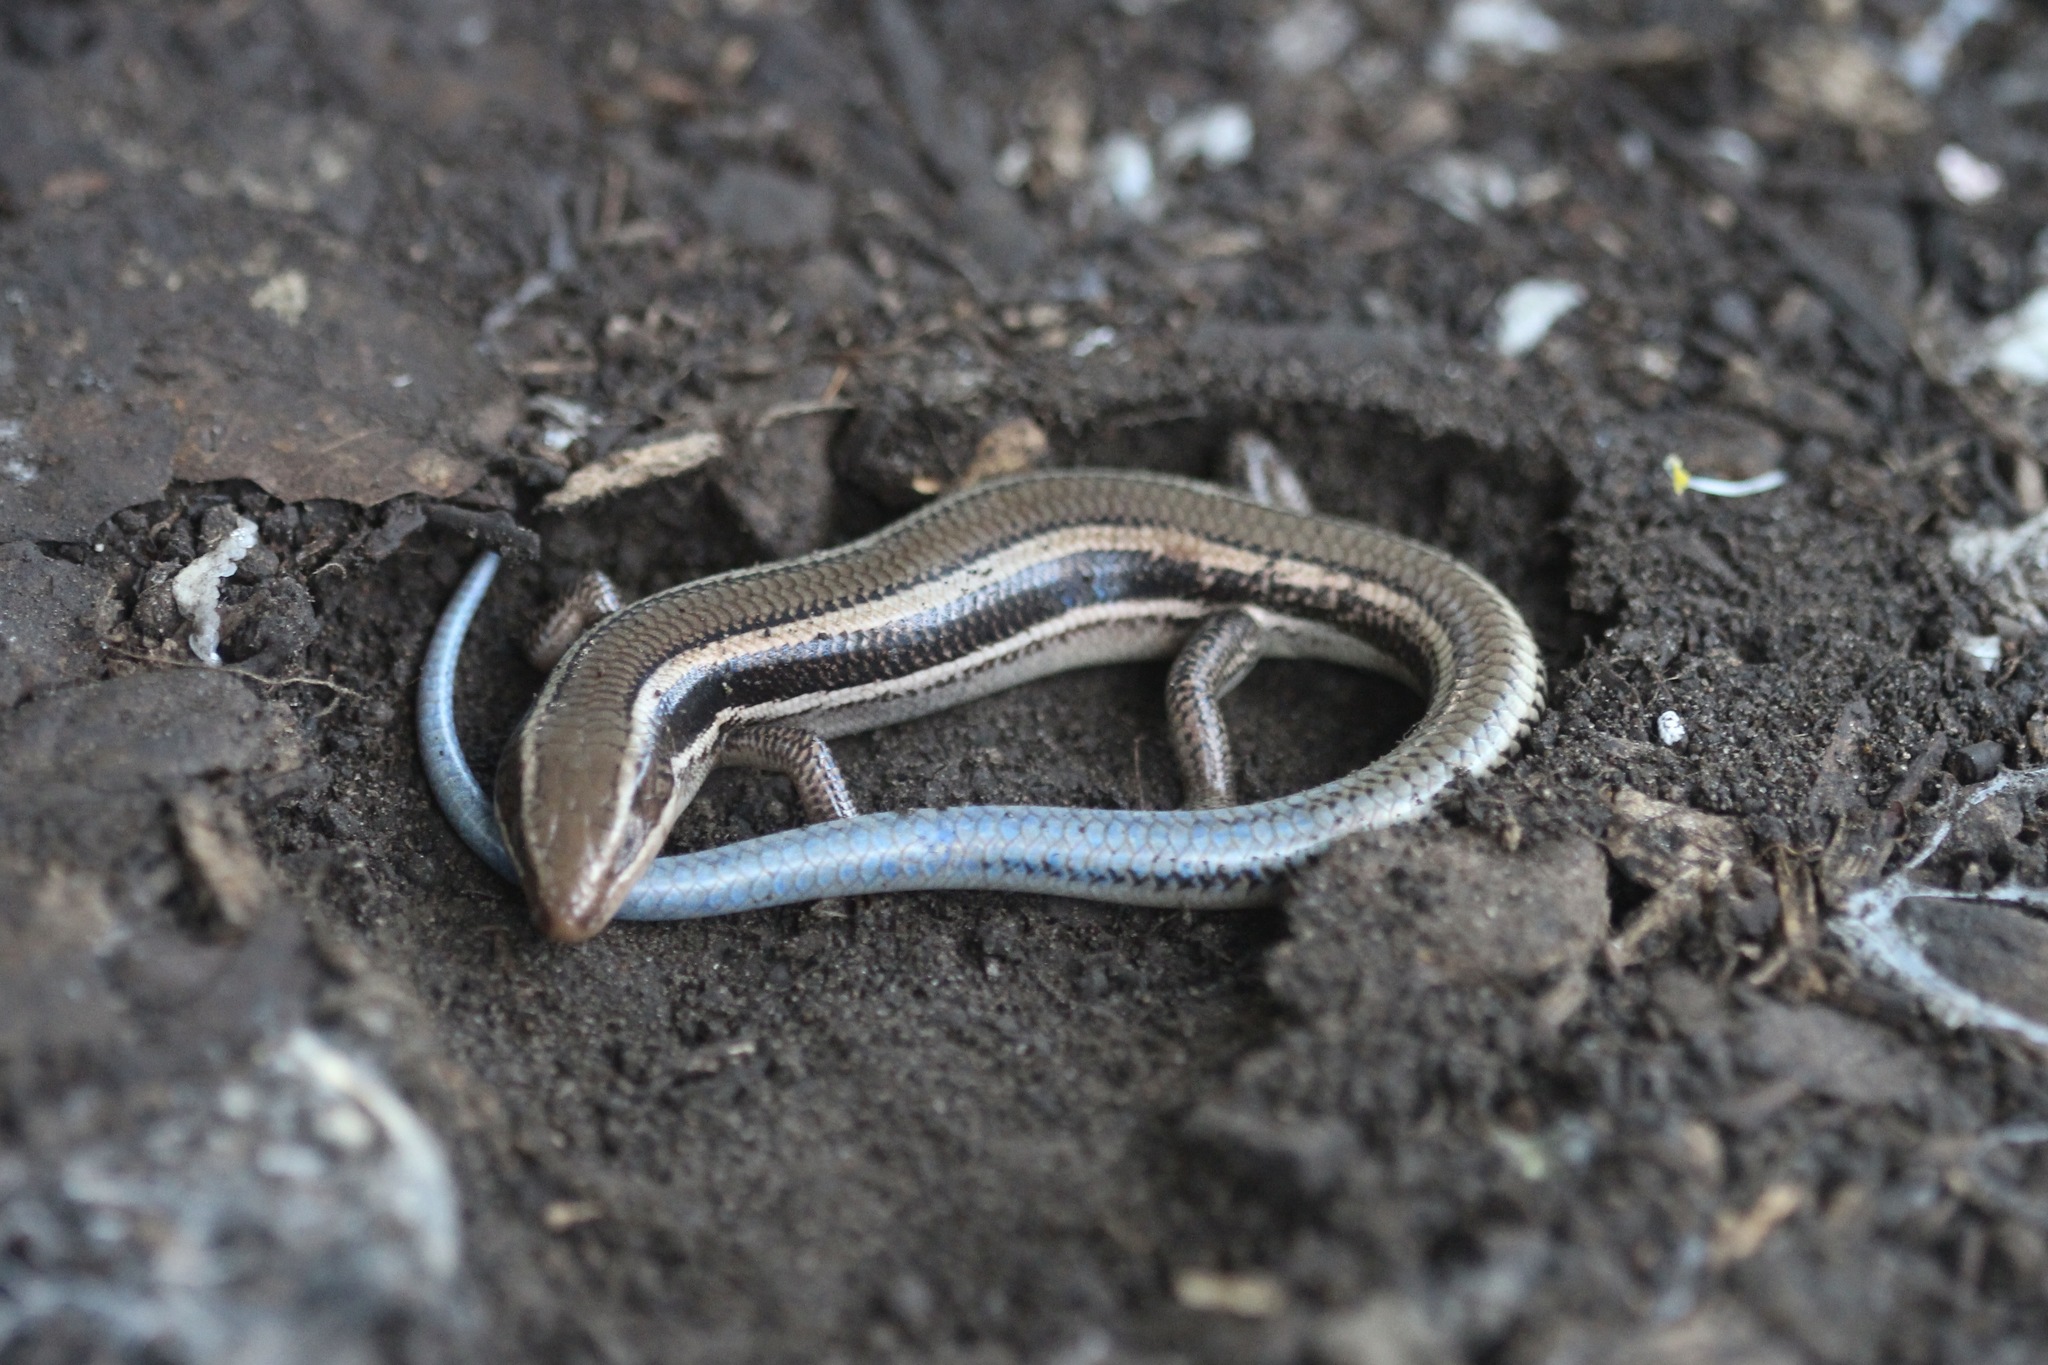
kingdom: Animalia
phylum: Chordata
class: Squamata
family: Scincidae
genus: Plestiodon
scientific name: Plestiodon skiltonianus
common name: Coronado island skink [interparietalis]
